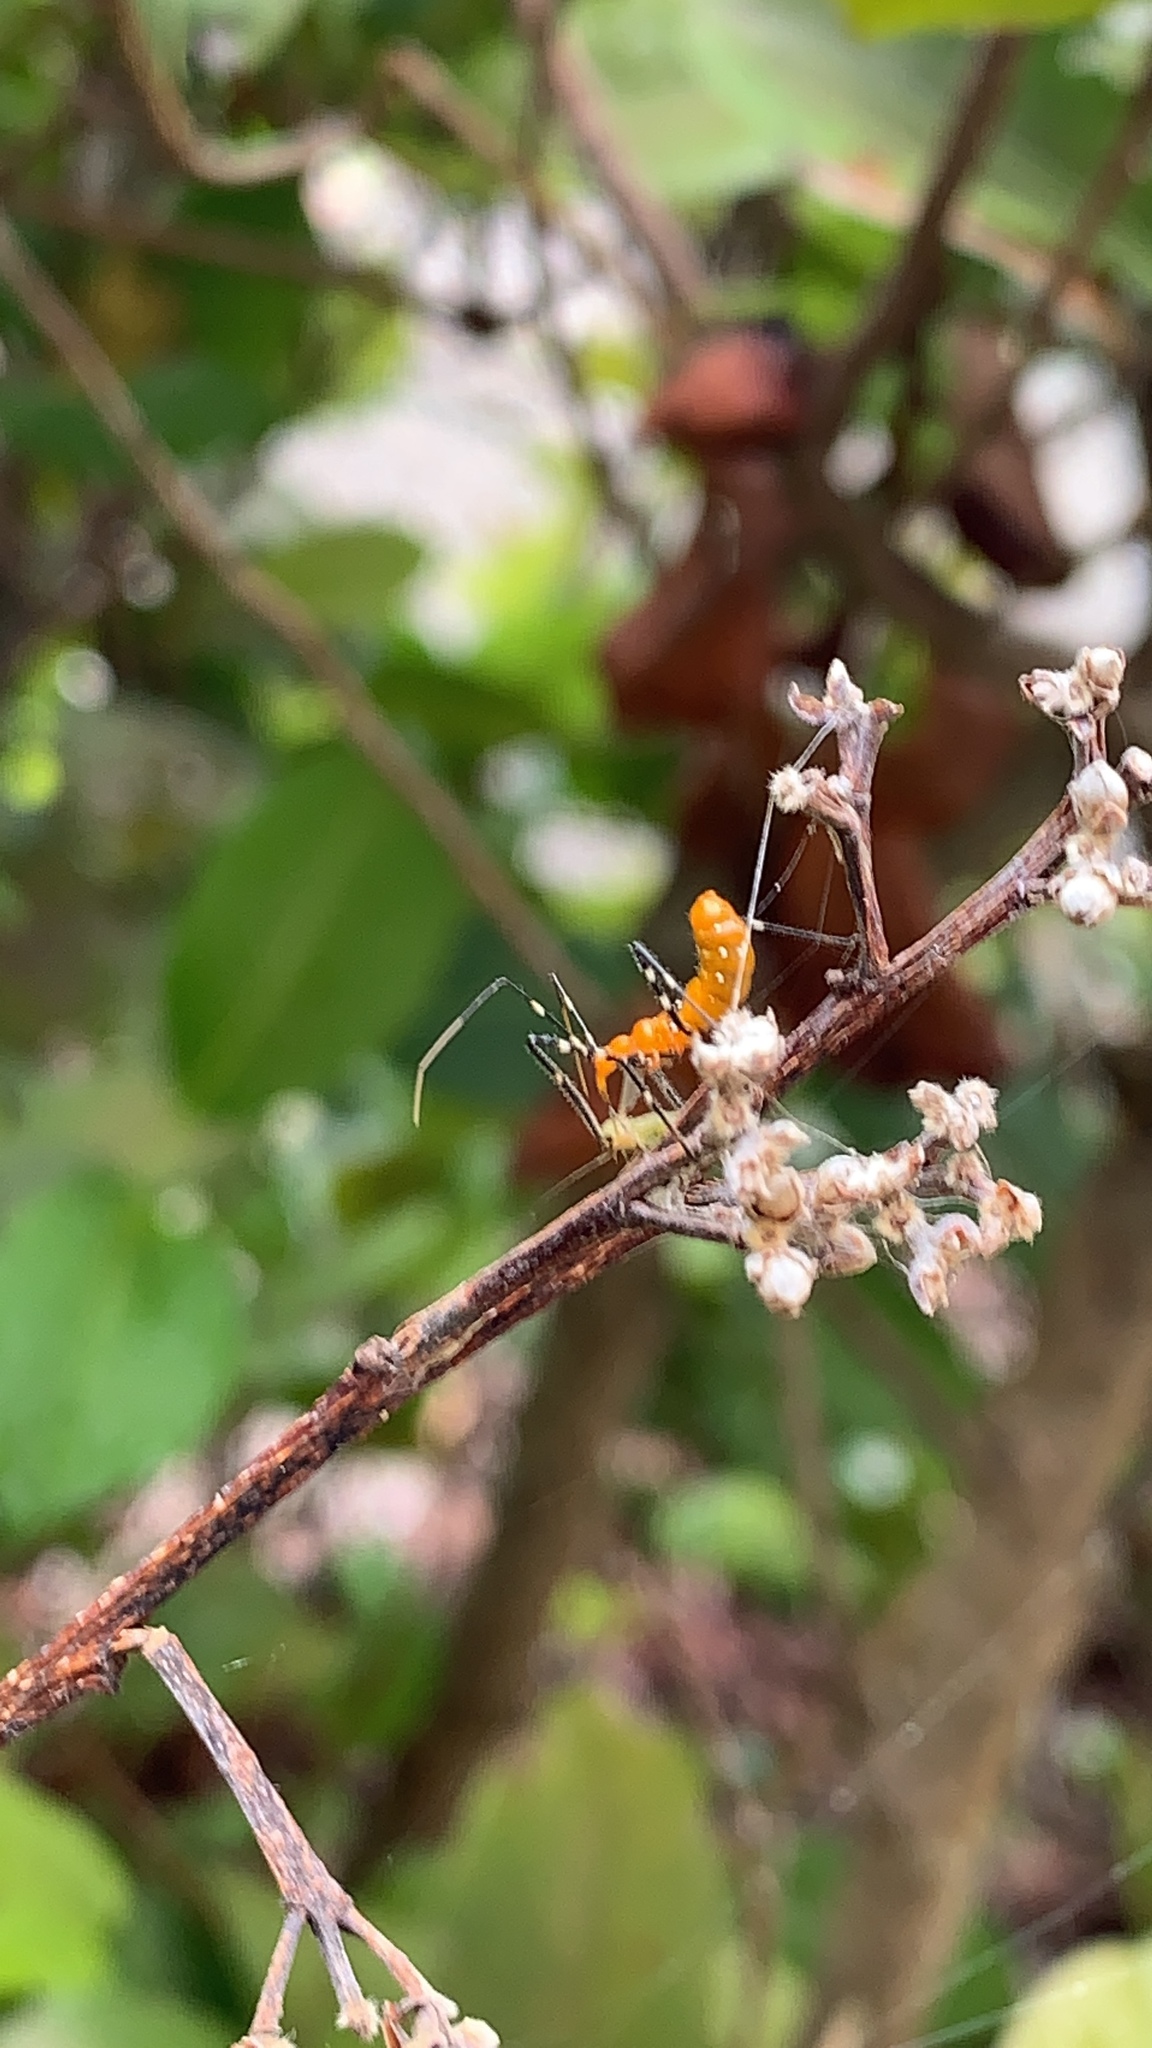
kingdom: Animalia
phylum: Arthropoda
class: Insecta
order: Hemiptera
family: Reduviidae
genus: Zelus
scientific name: Zelus longipes
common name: Milkweed assassin bug
